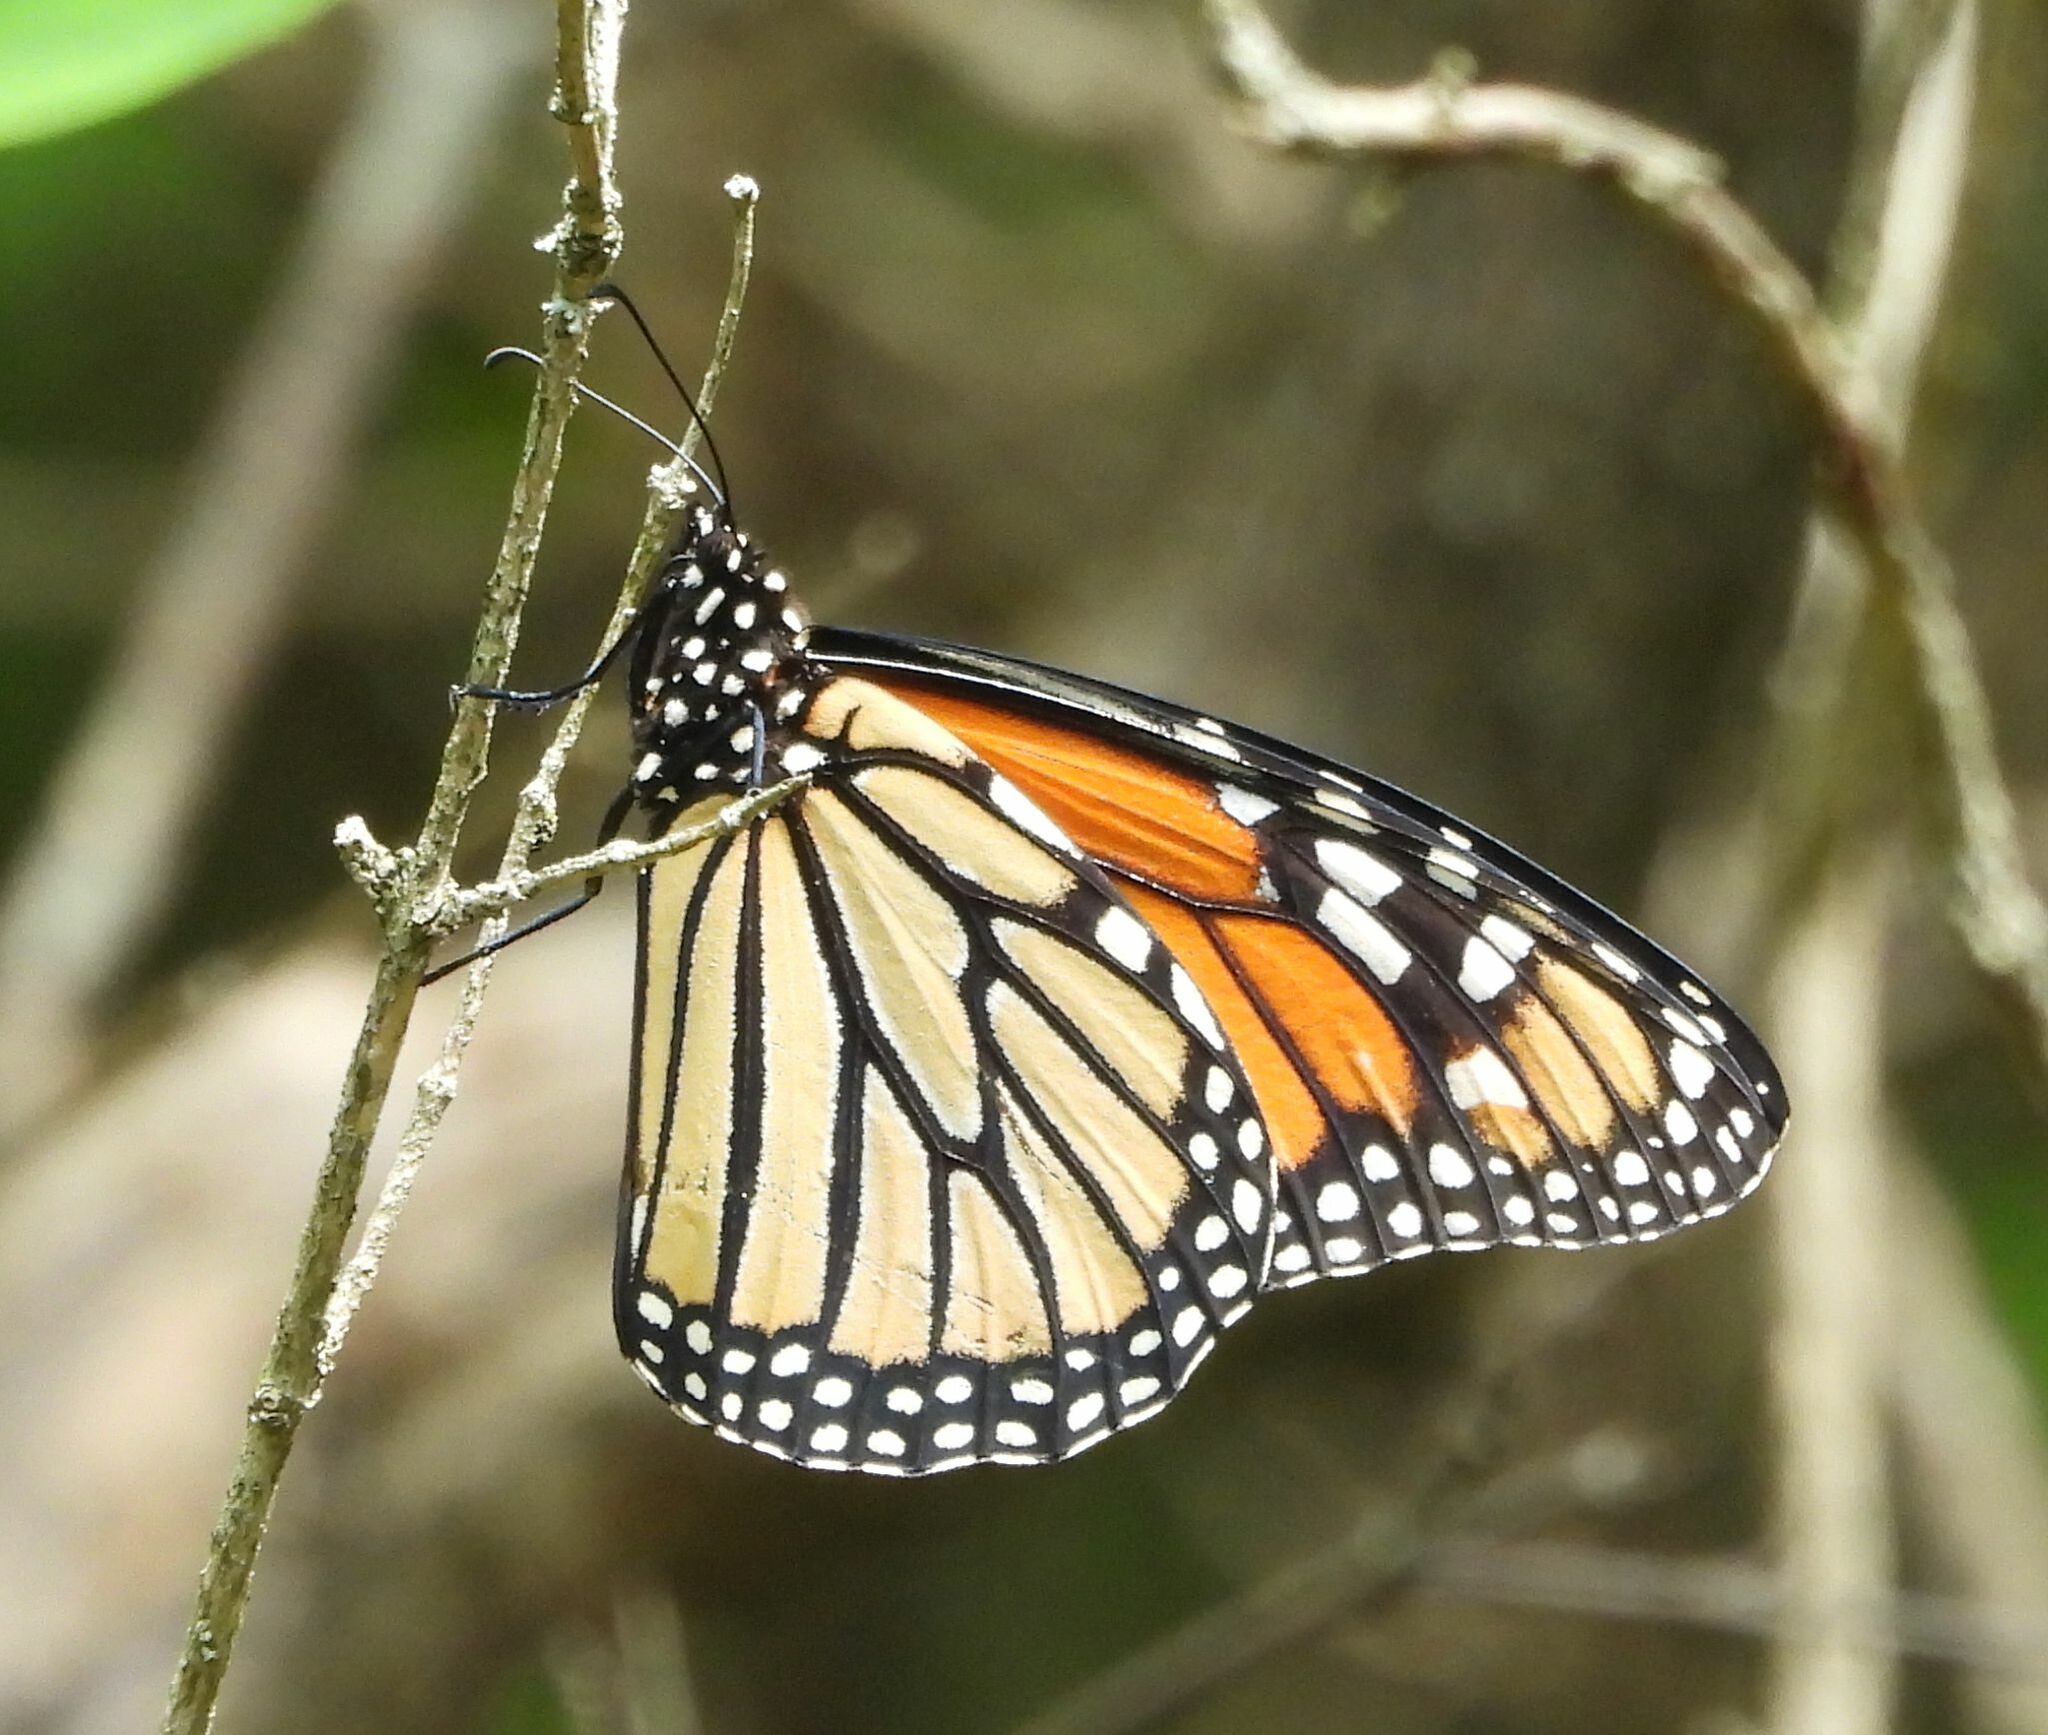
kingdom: Animalia
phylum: Arthropoda
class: Insecta
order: Lepidoptera
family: Nymphalidae
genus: Danaus
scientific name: Danaus plexippus
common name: Monarch
